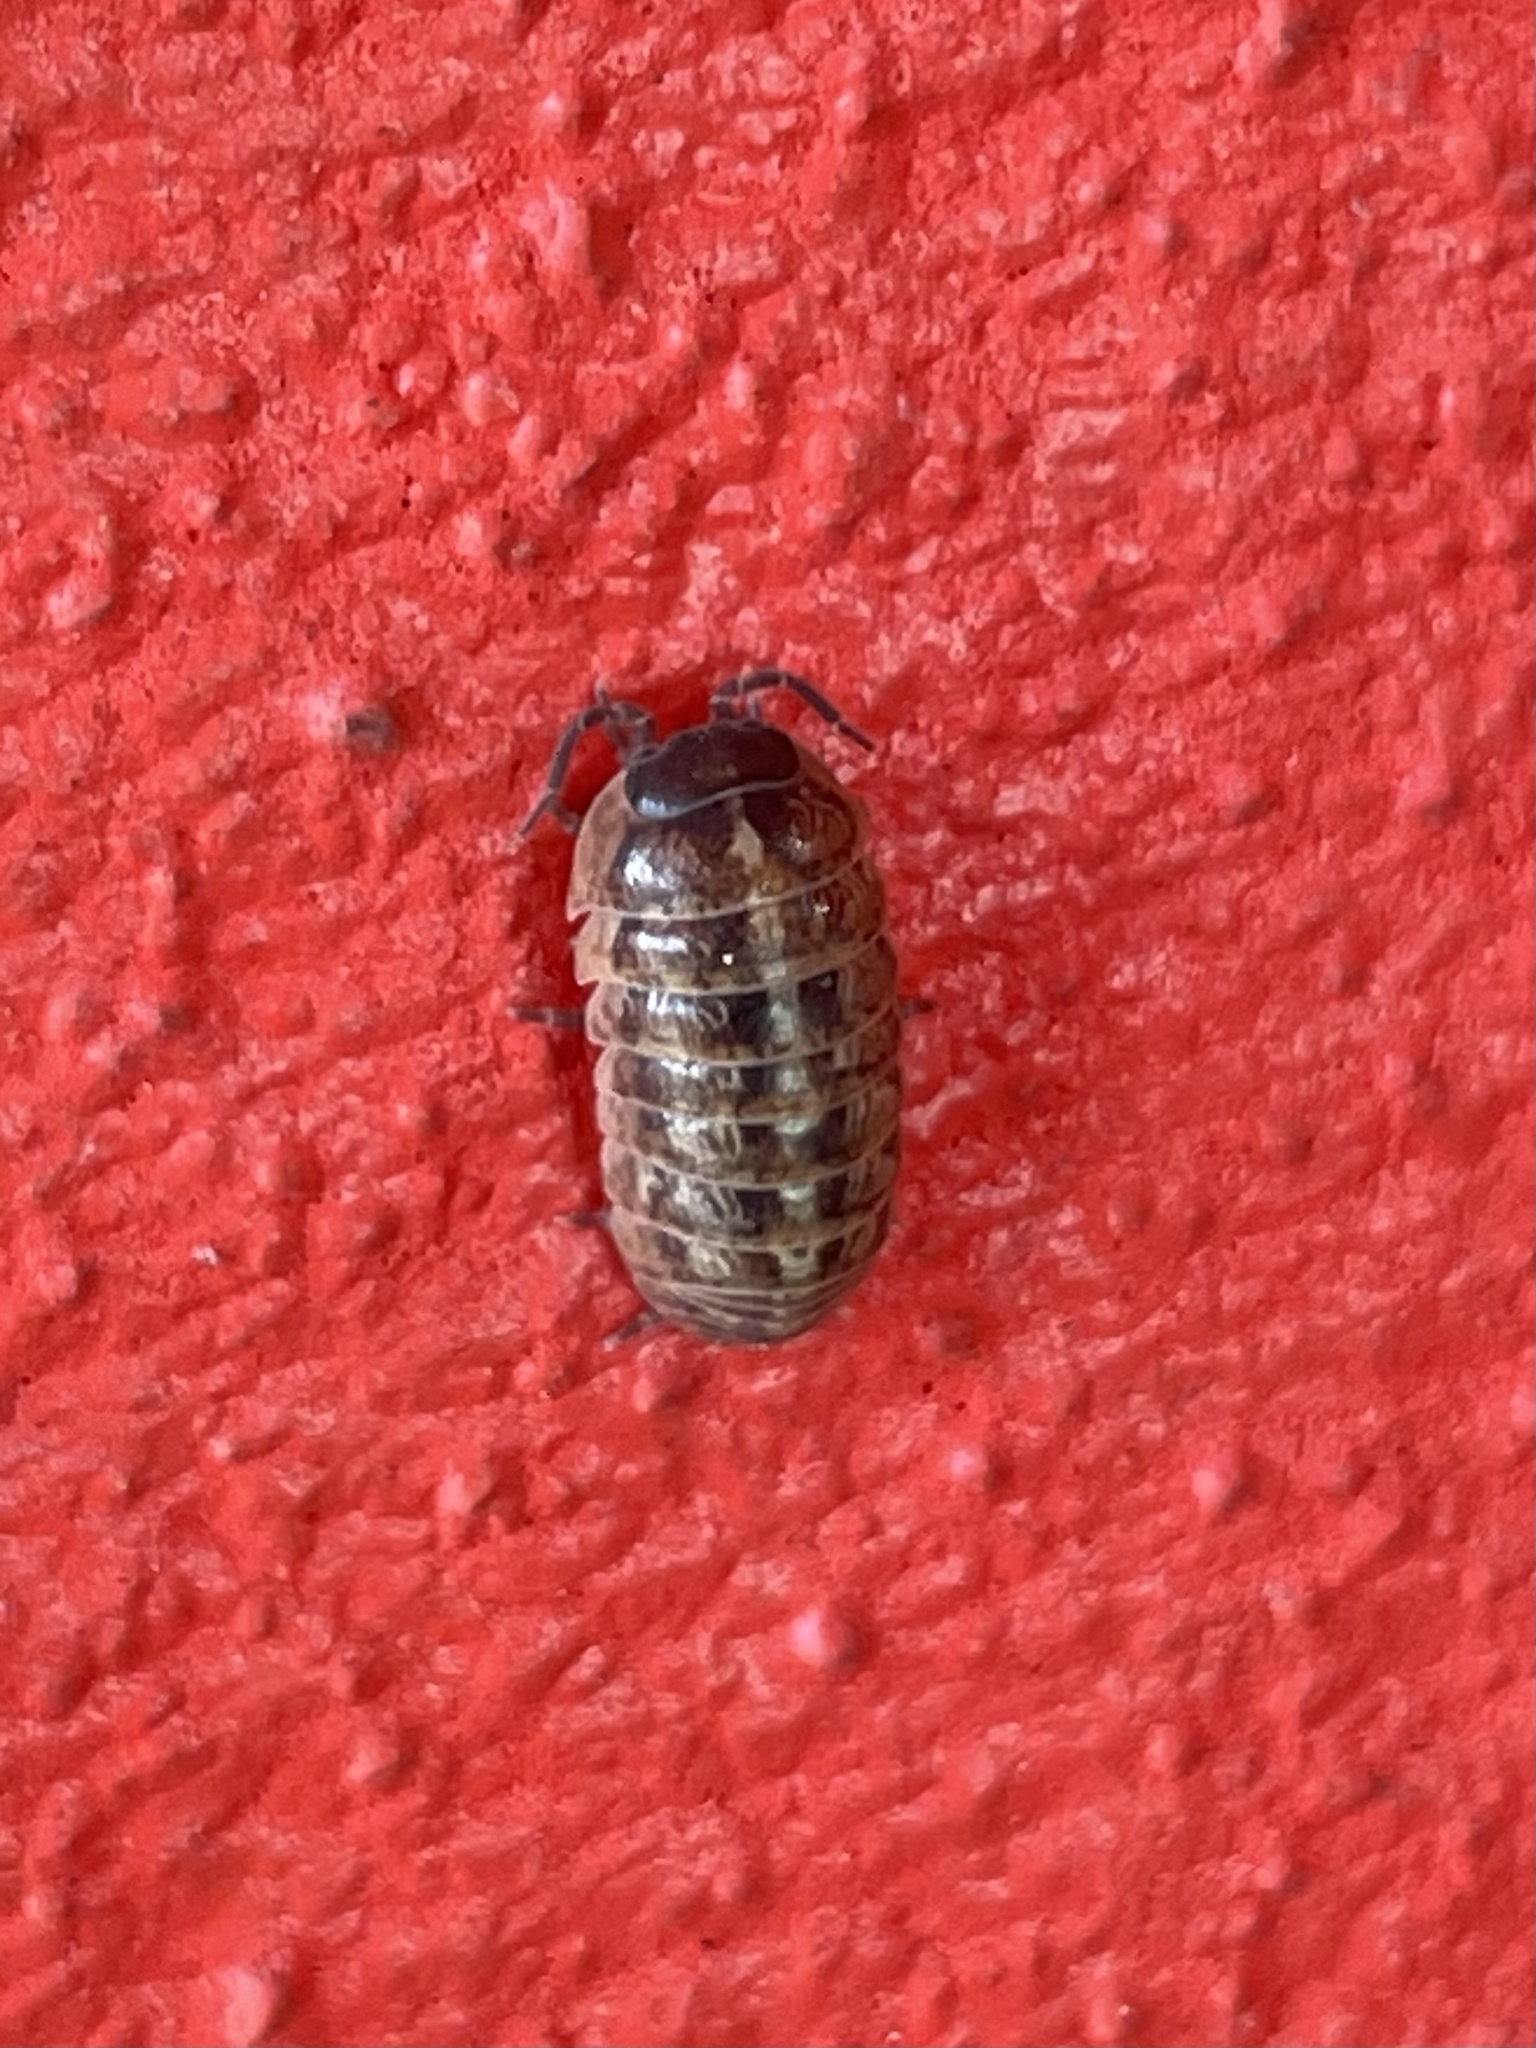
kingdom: Animalia
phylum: Arthropoda
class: Malacostraca
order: Isopoda
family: Armadillidiidae
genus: Armadillidium
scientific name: Armadillidium vulgare
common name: Common pill woodlouse
